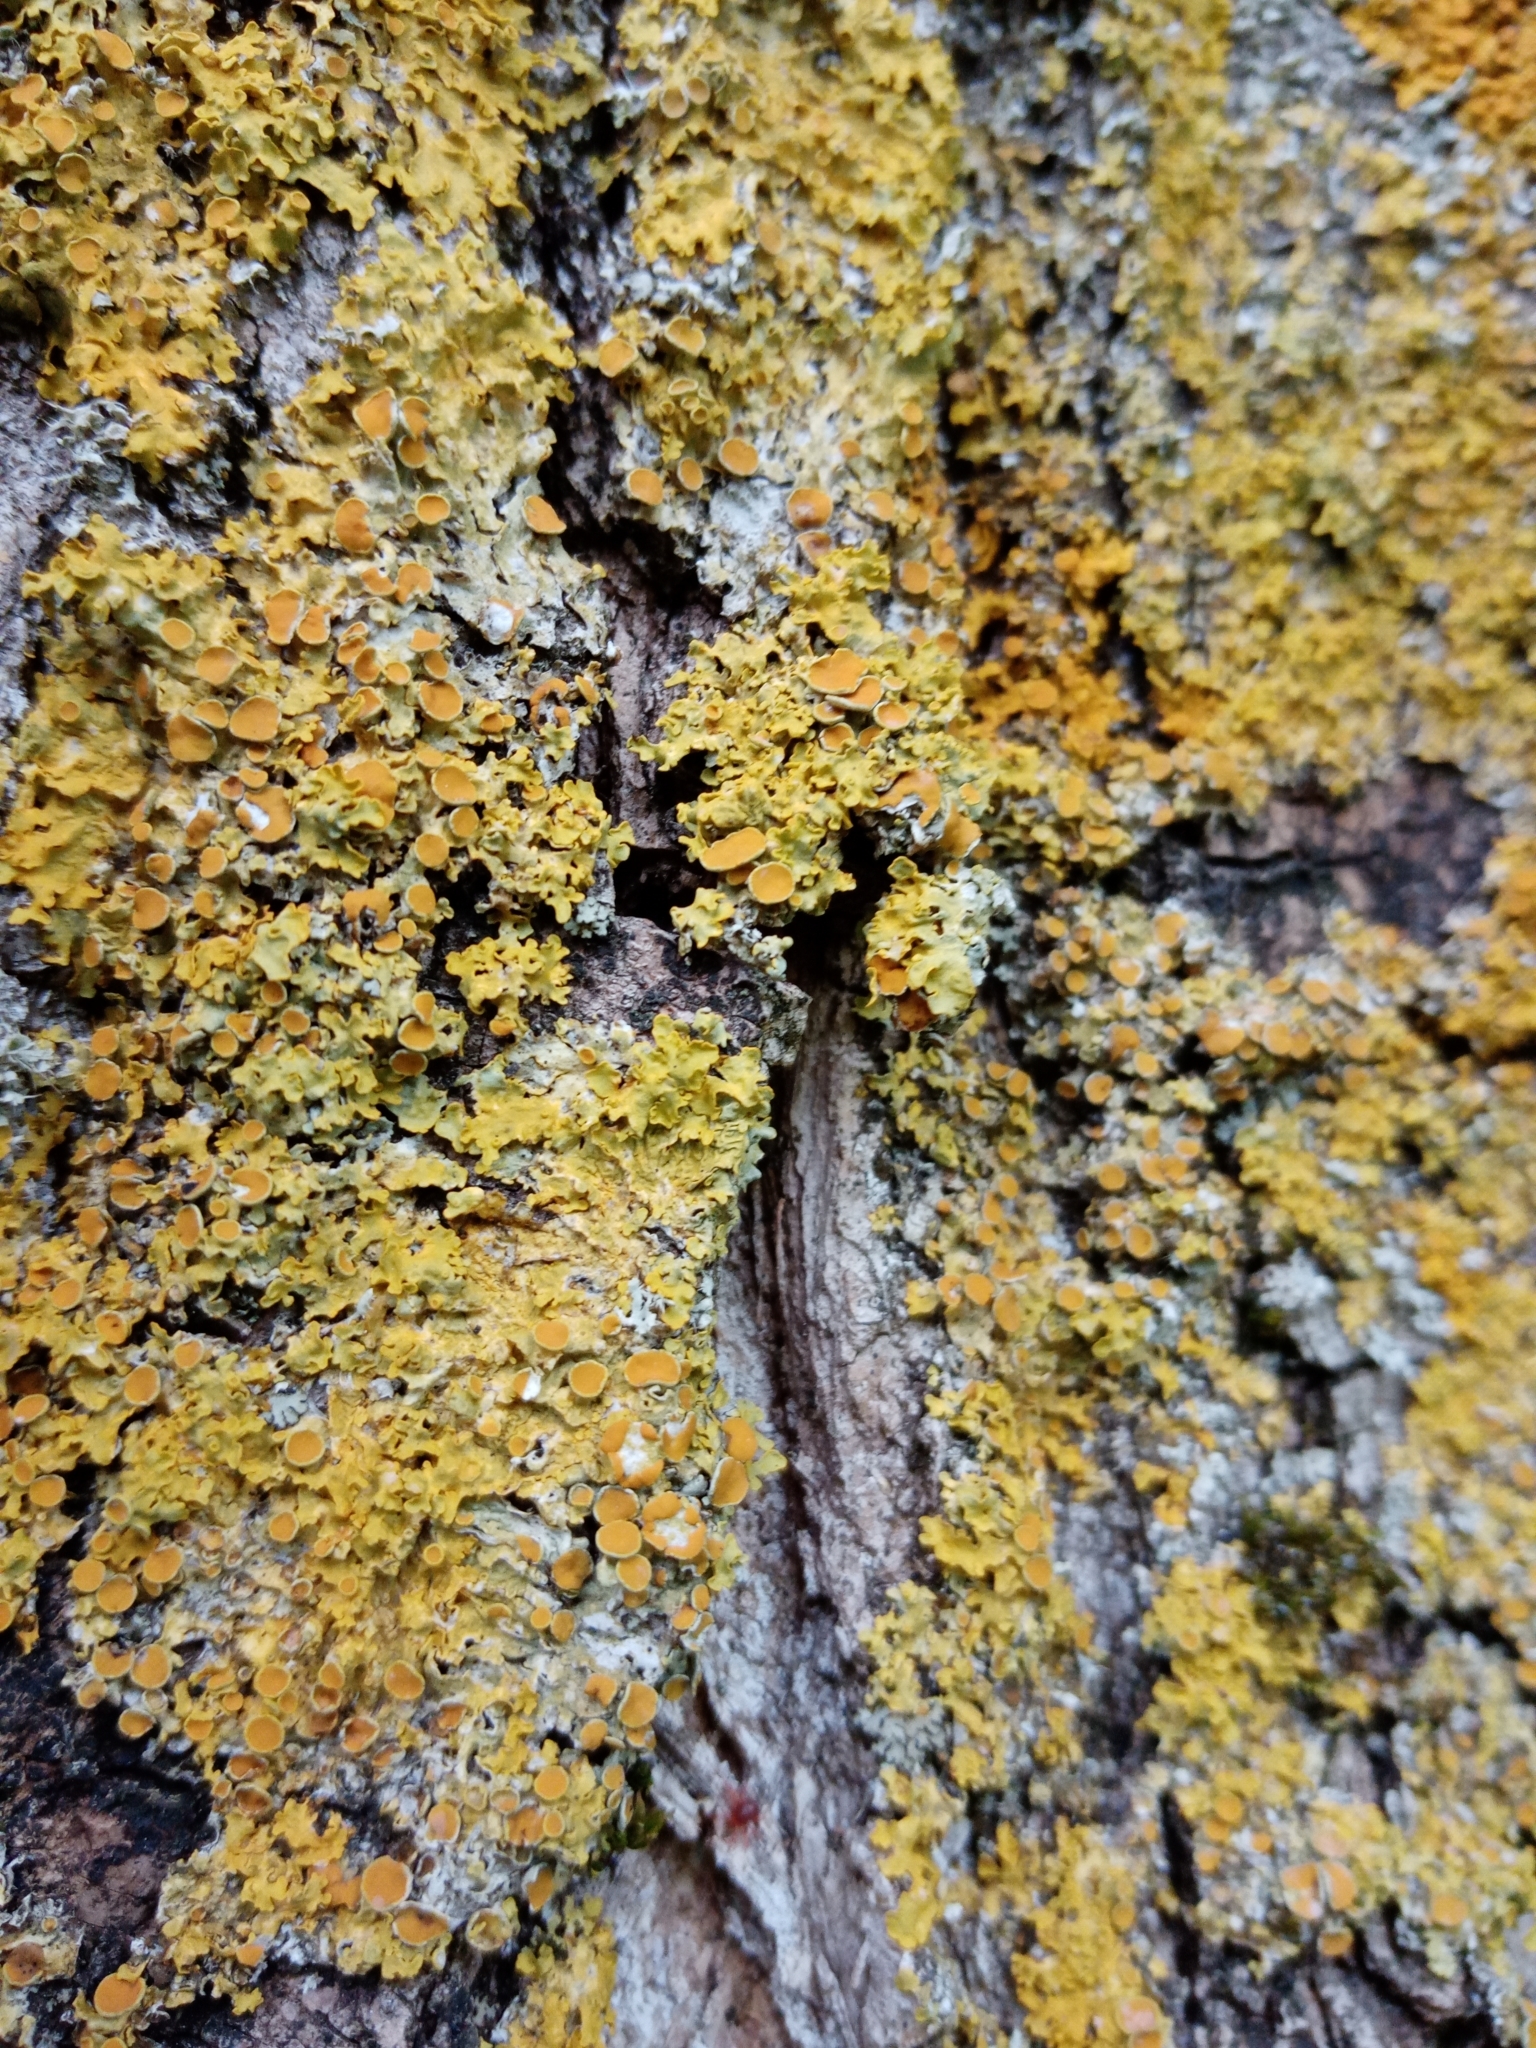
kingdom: Fungi
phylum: Ascomycota
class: Lecanoromycetes
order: Teloschistales
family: Teloschistaceae
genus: Xanthoria
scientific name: Xanthoria parietina
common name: Common orange lichen
